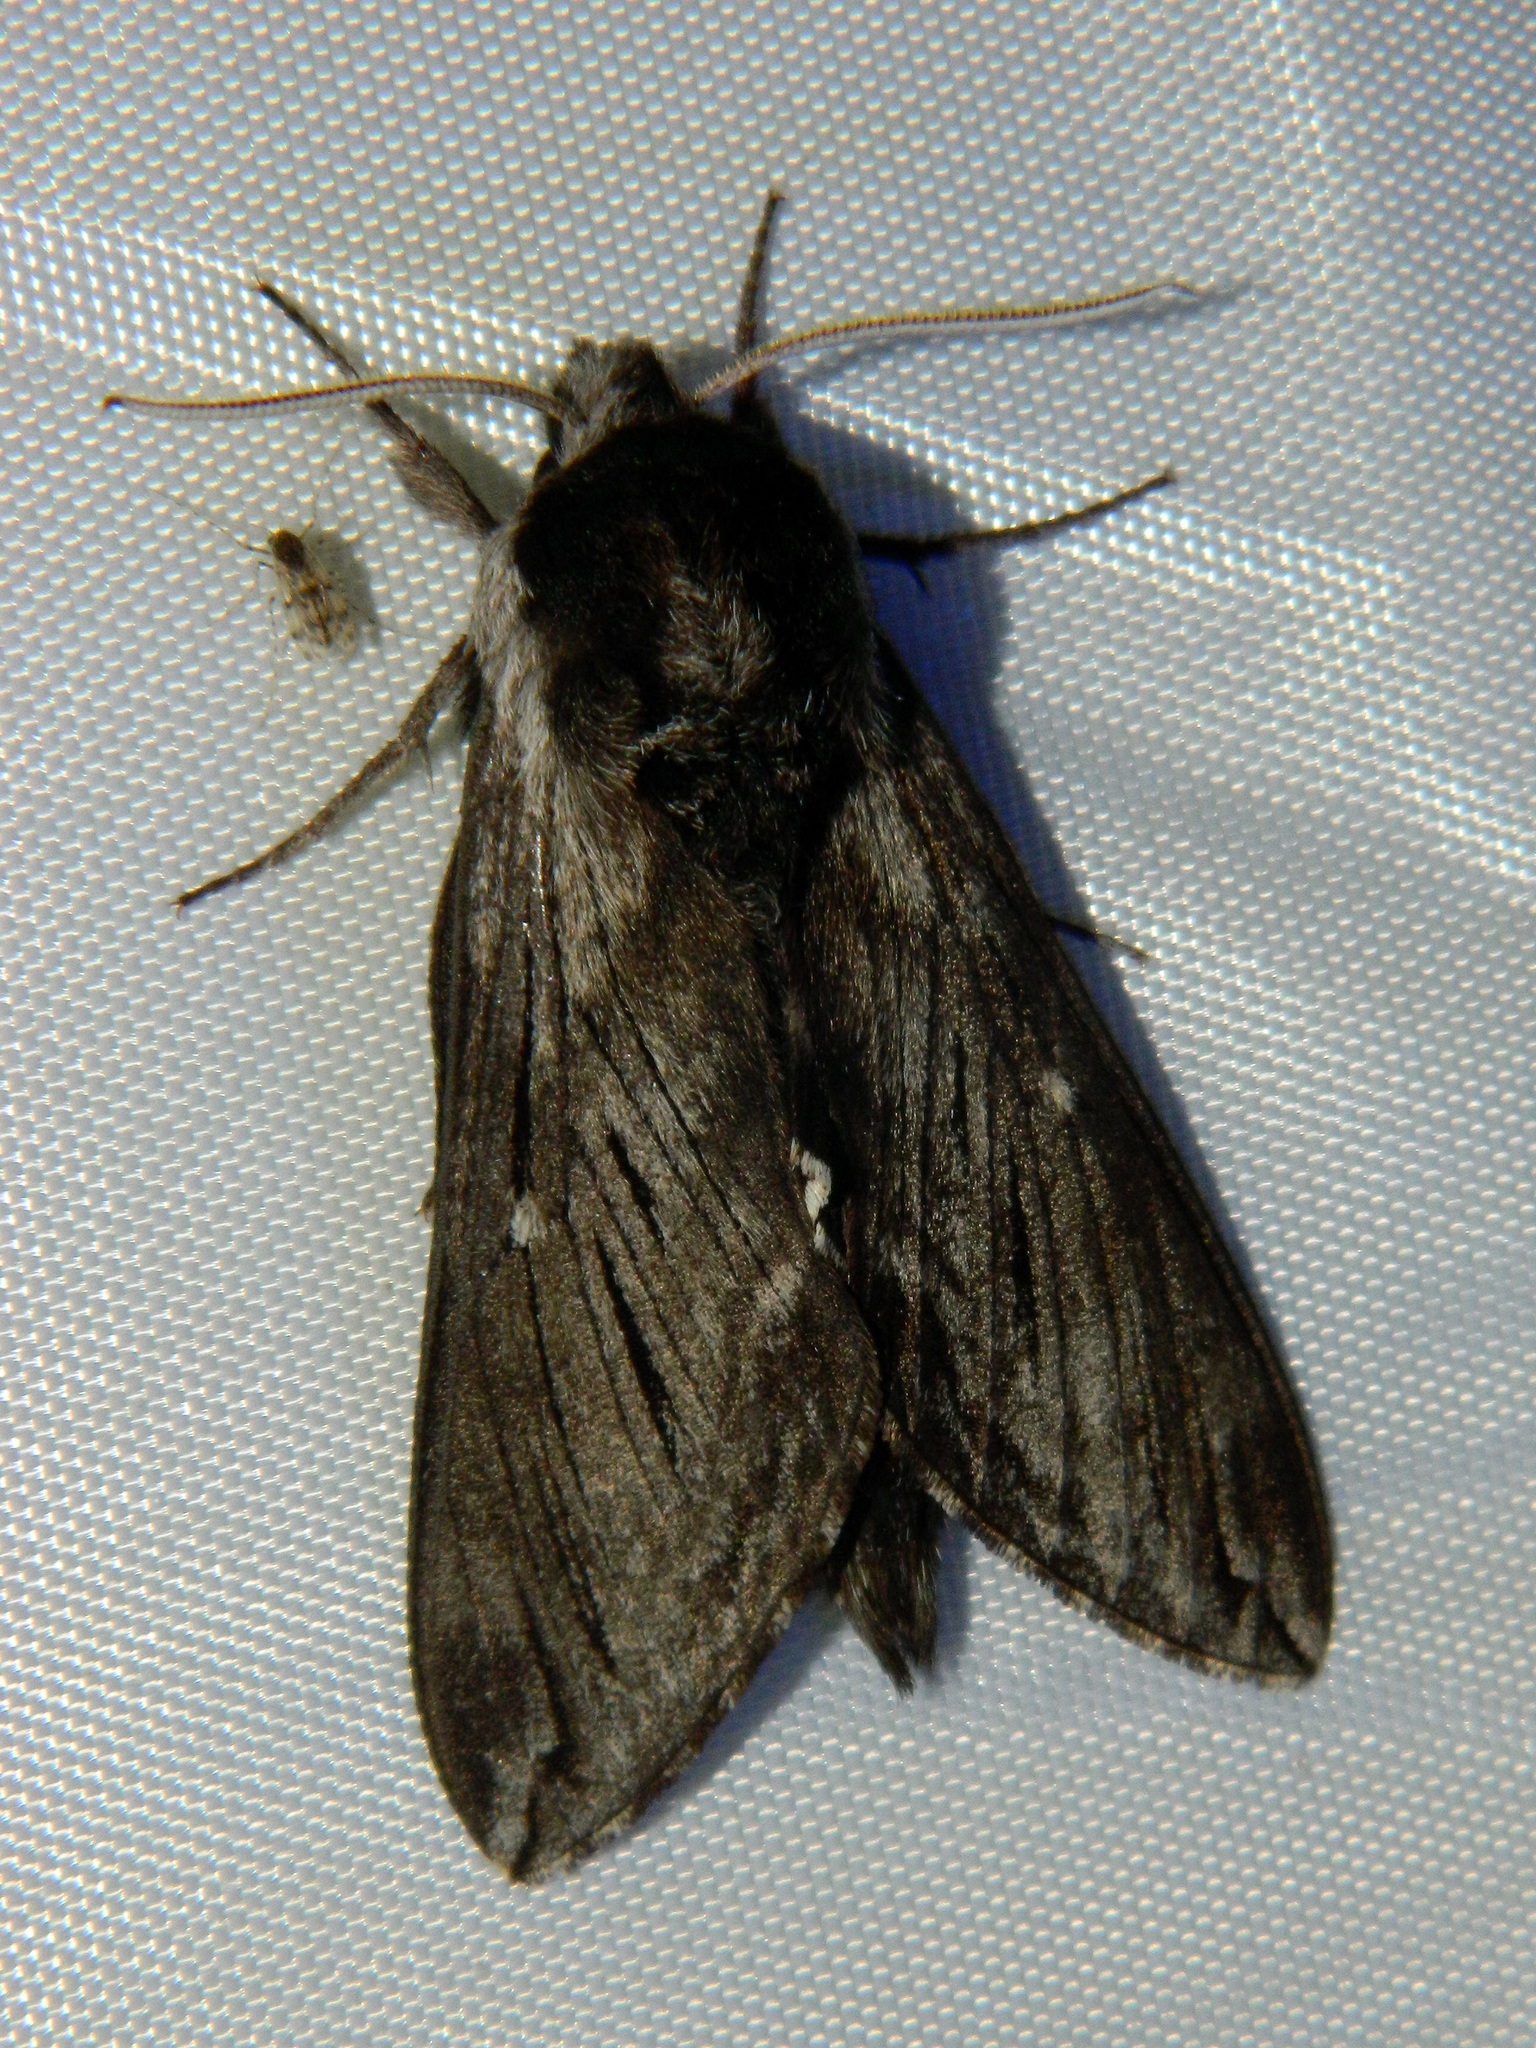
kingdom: Animalia
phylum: Arthropoda
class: Insecta
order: Lepidoptera
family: Sphingidae
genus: Sphinx
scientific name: Sphinx poecila
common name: Northern apple sphinx
